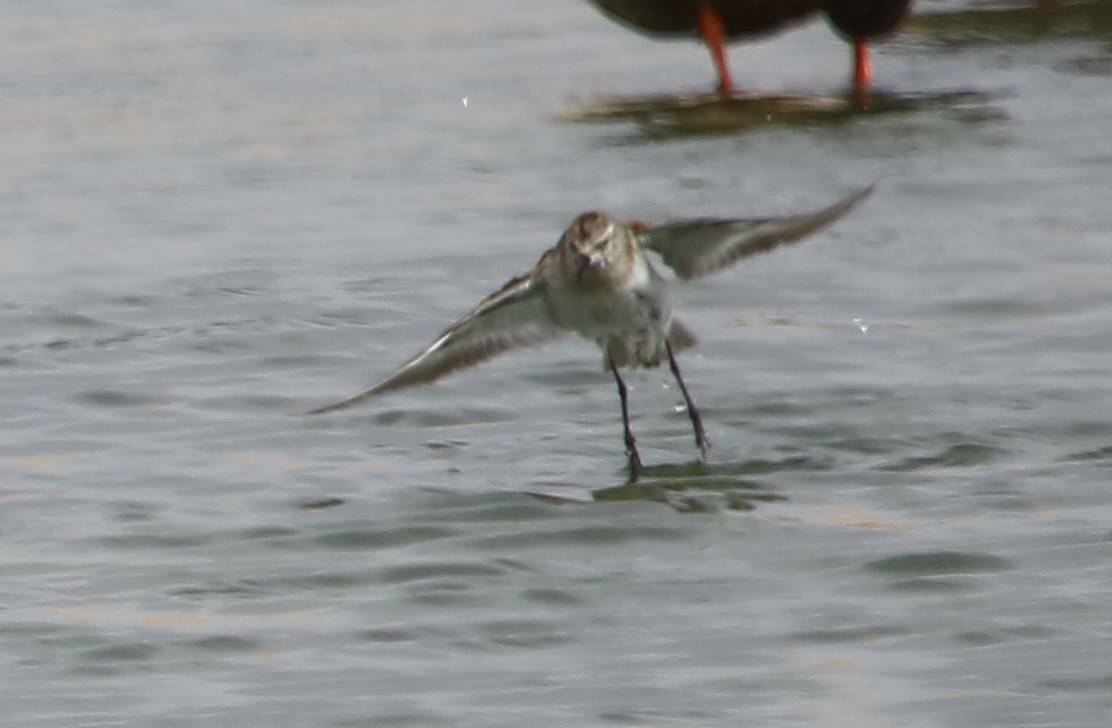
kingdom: Animalia
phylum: Chordata
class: Aves
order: Charadriiformes
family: Scolopacidae
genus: Calidris
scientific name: Calidris minuta
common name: Little stint
